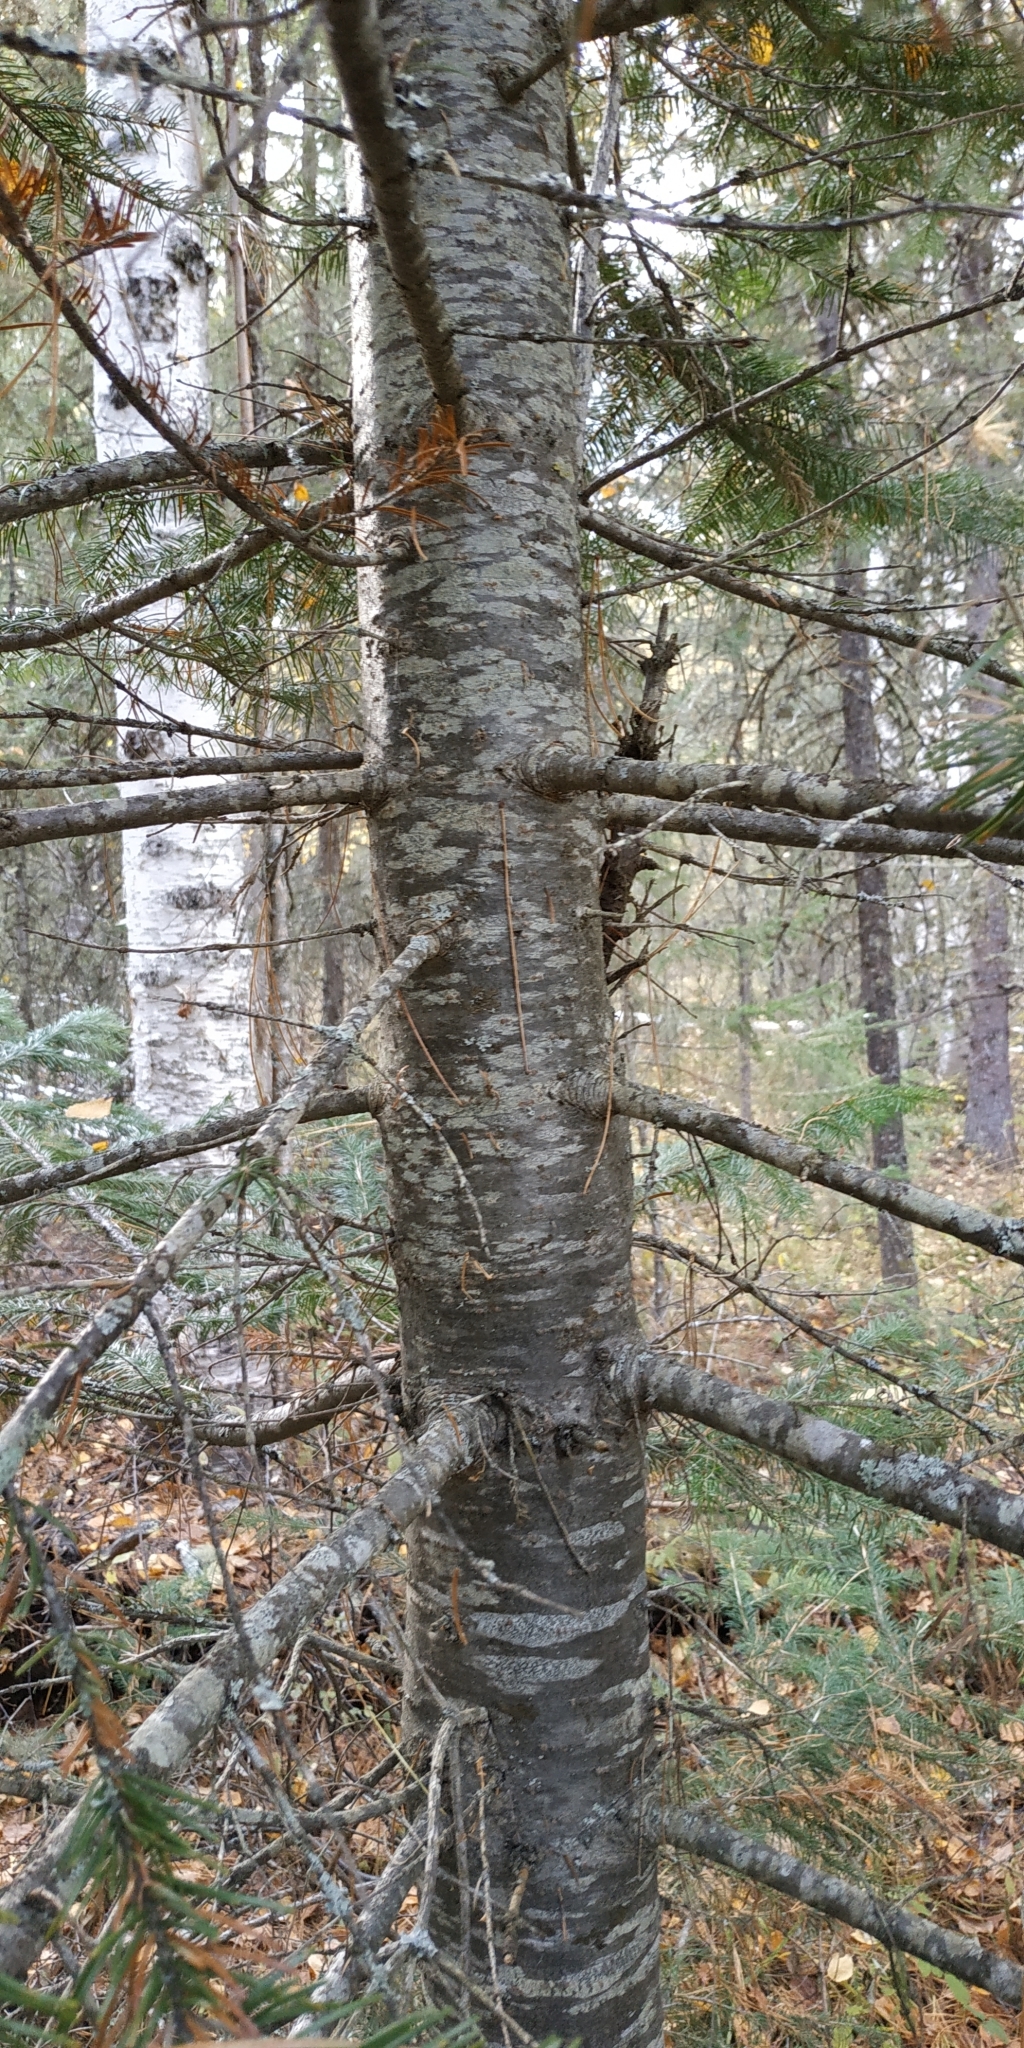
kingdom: Plantae
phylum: Tracheophyta
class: Pinopsida
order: Pinales
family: Pinaceae
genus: Abies
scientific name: Abies sibirica
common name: Siberian fir
